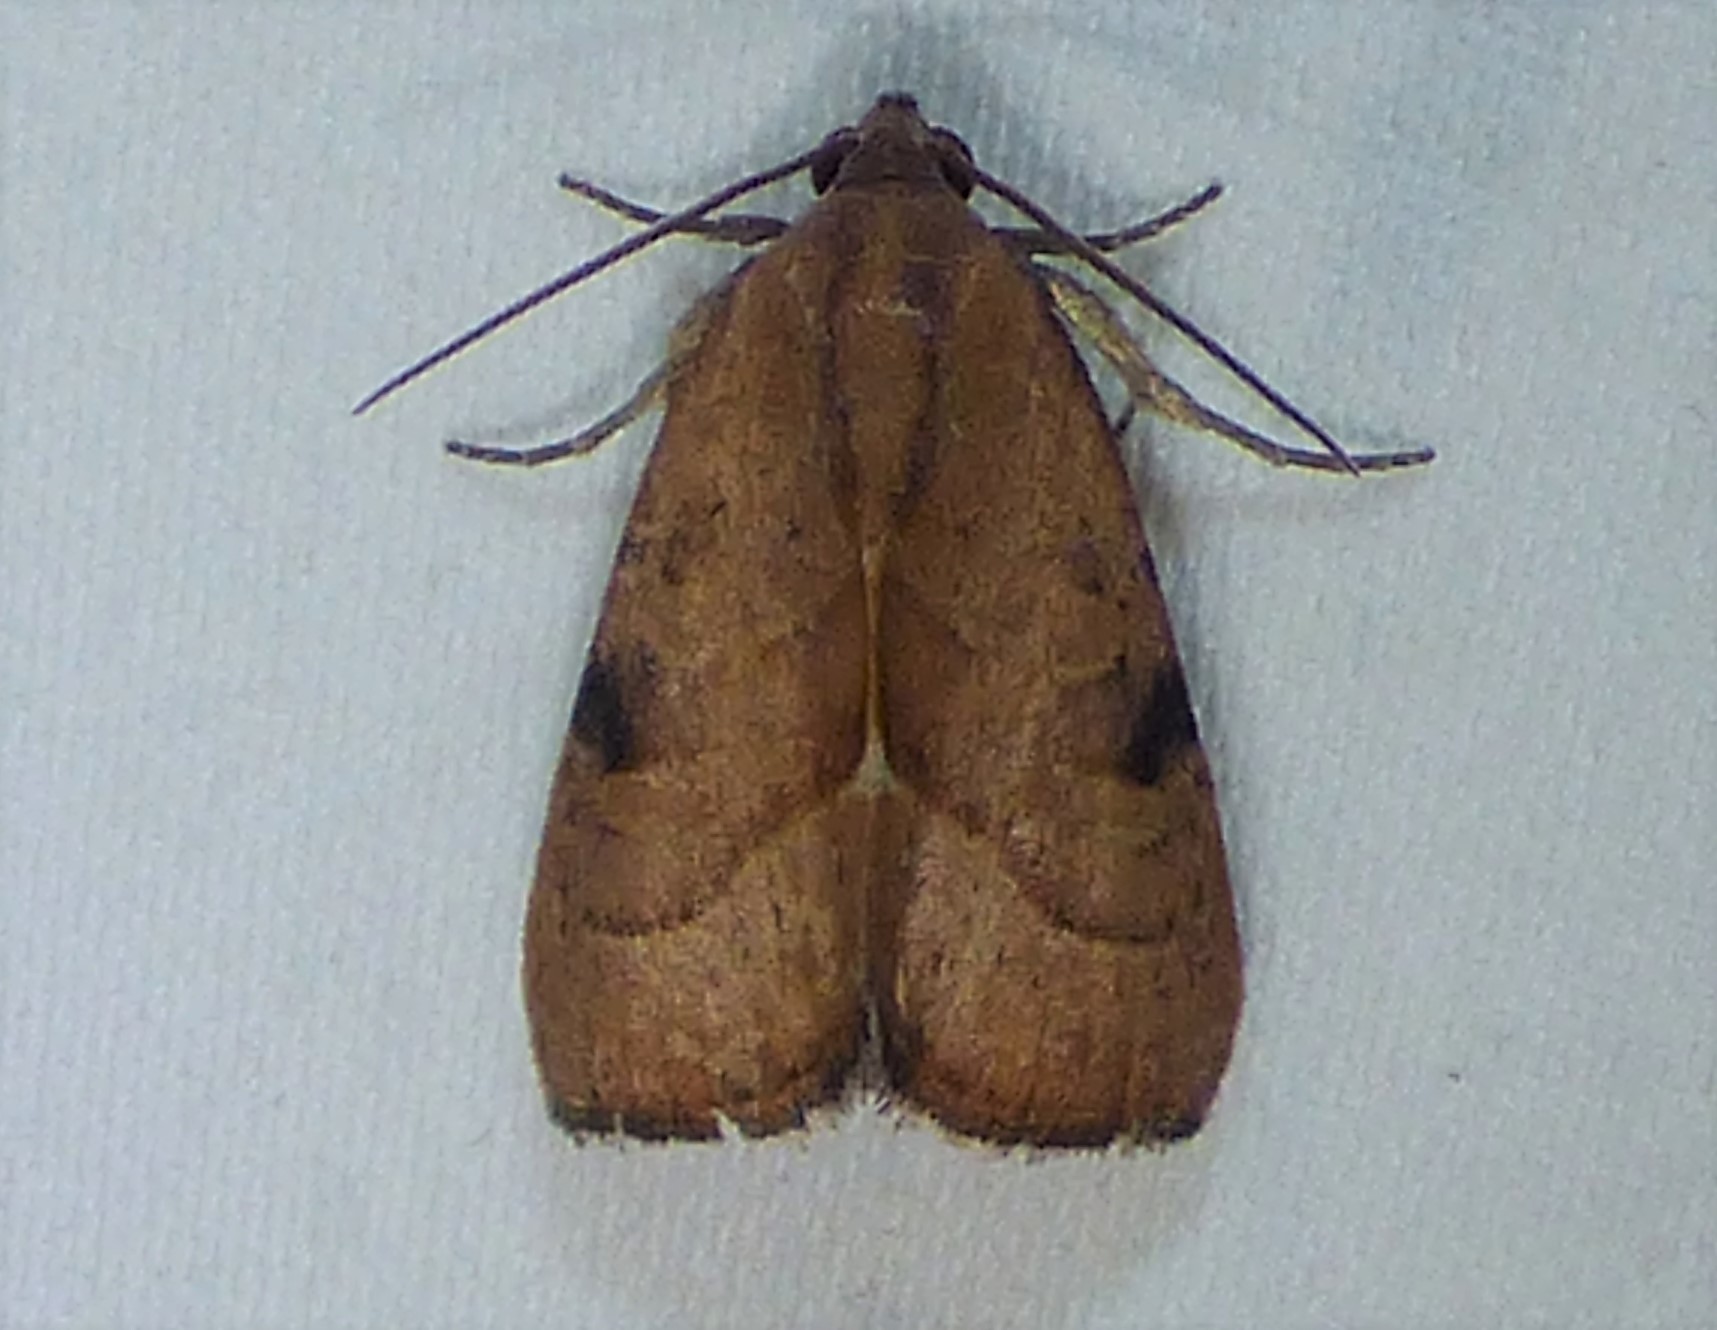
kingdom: Animalia
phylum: Arthropoda
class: Insecta
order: Lepidoptera
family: Noctuidae
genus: Galgula
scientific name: Galgula partita
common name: Wedgeling
